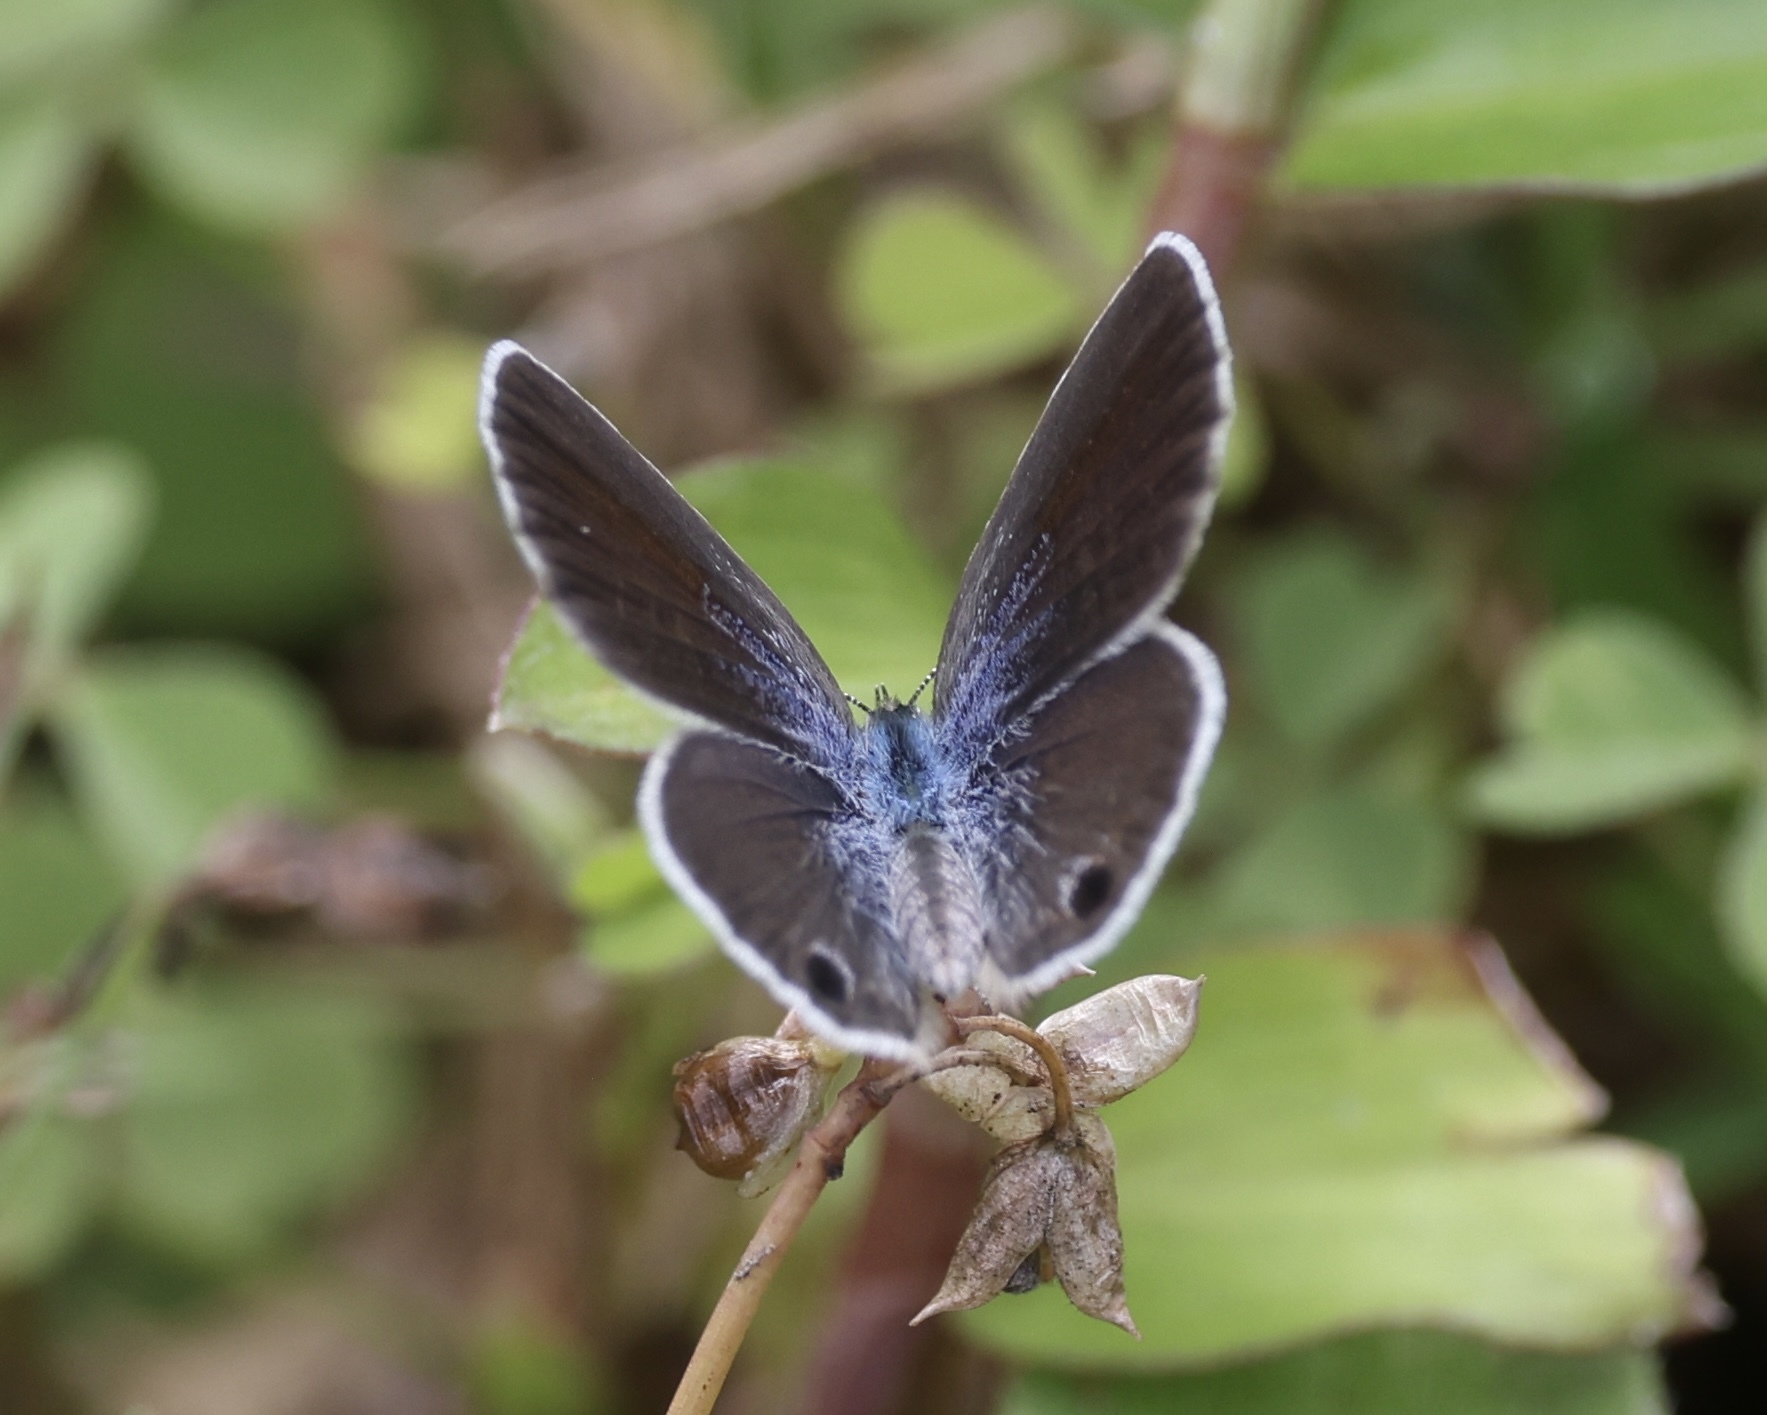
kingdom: Animalia
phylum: Arthropoda
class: Insecta
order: Lepidoptera
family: Lycaenidae
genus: Hemiargus
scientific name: Hemiargus ceraunus
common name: Ceraunus blue
